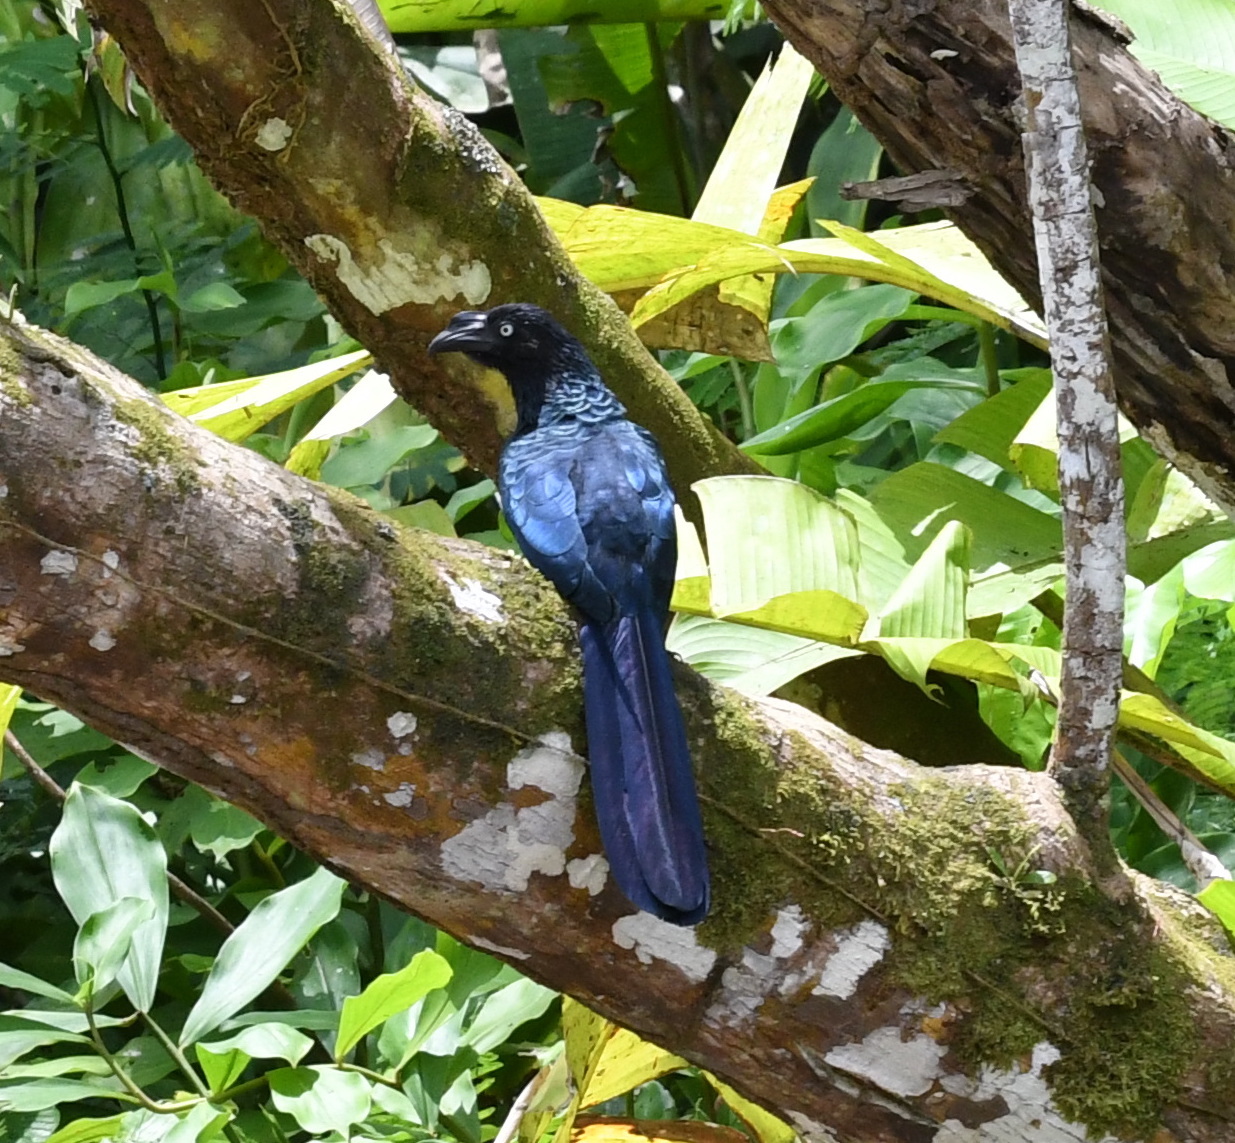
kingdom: Animalia
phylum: Chordata
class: Aves
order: Cuculiformes
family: Cuculidae
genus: Crotophaga
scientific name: Crotophaga major
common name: Greater ani
